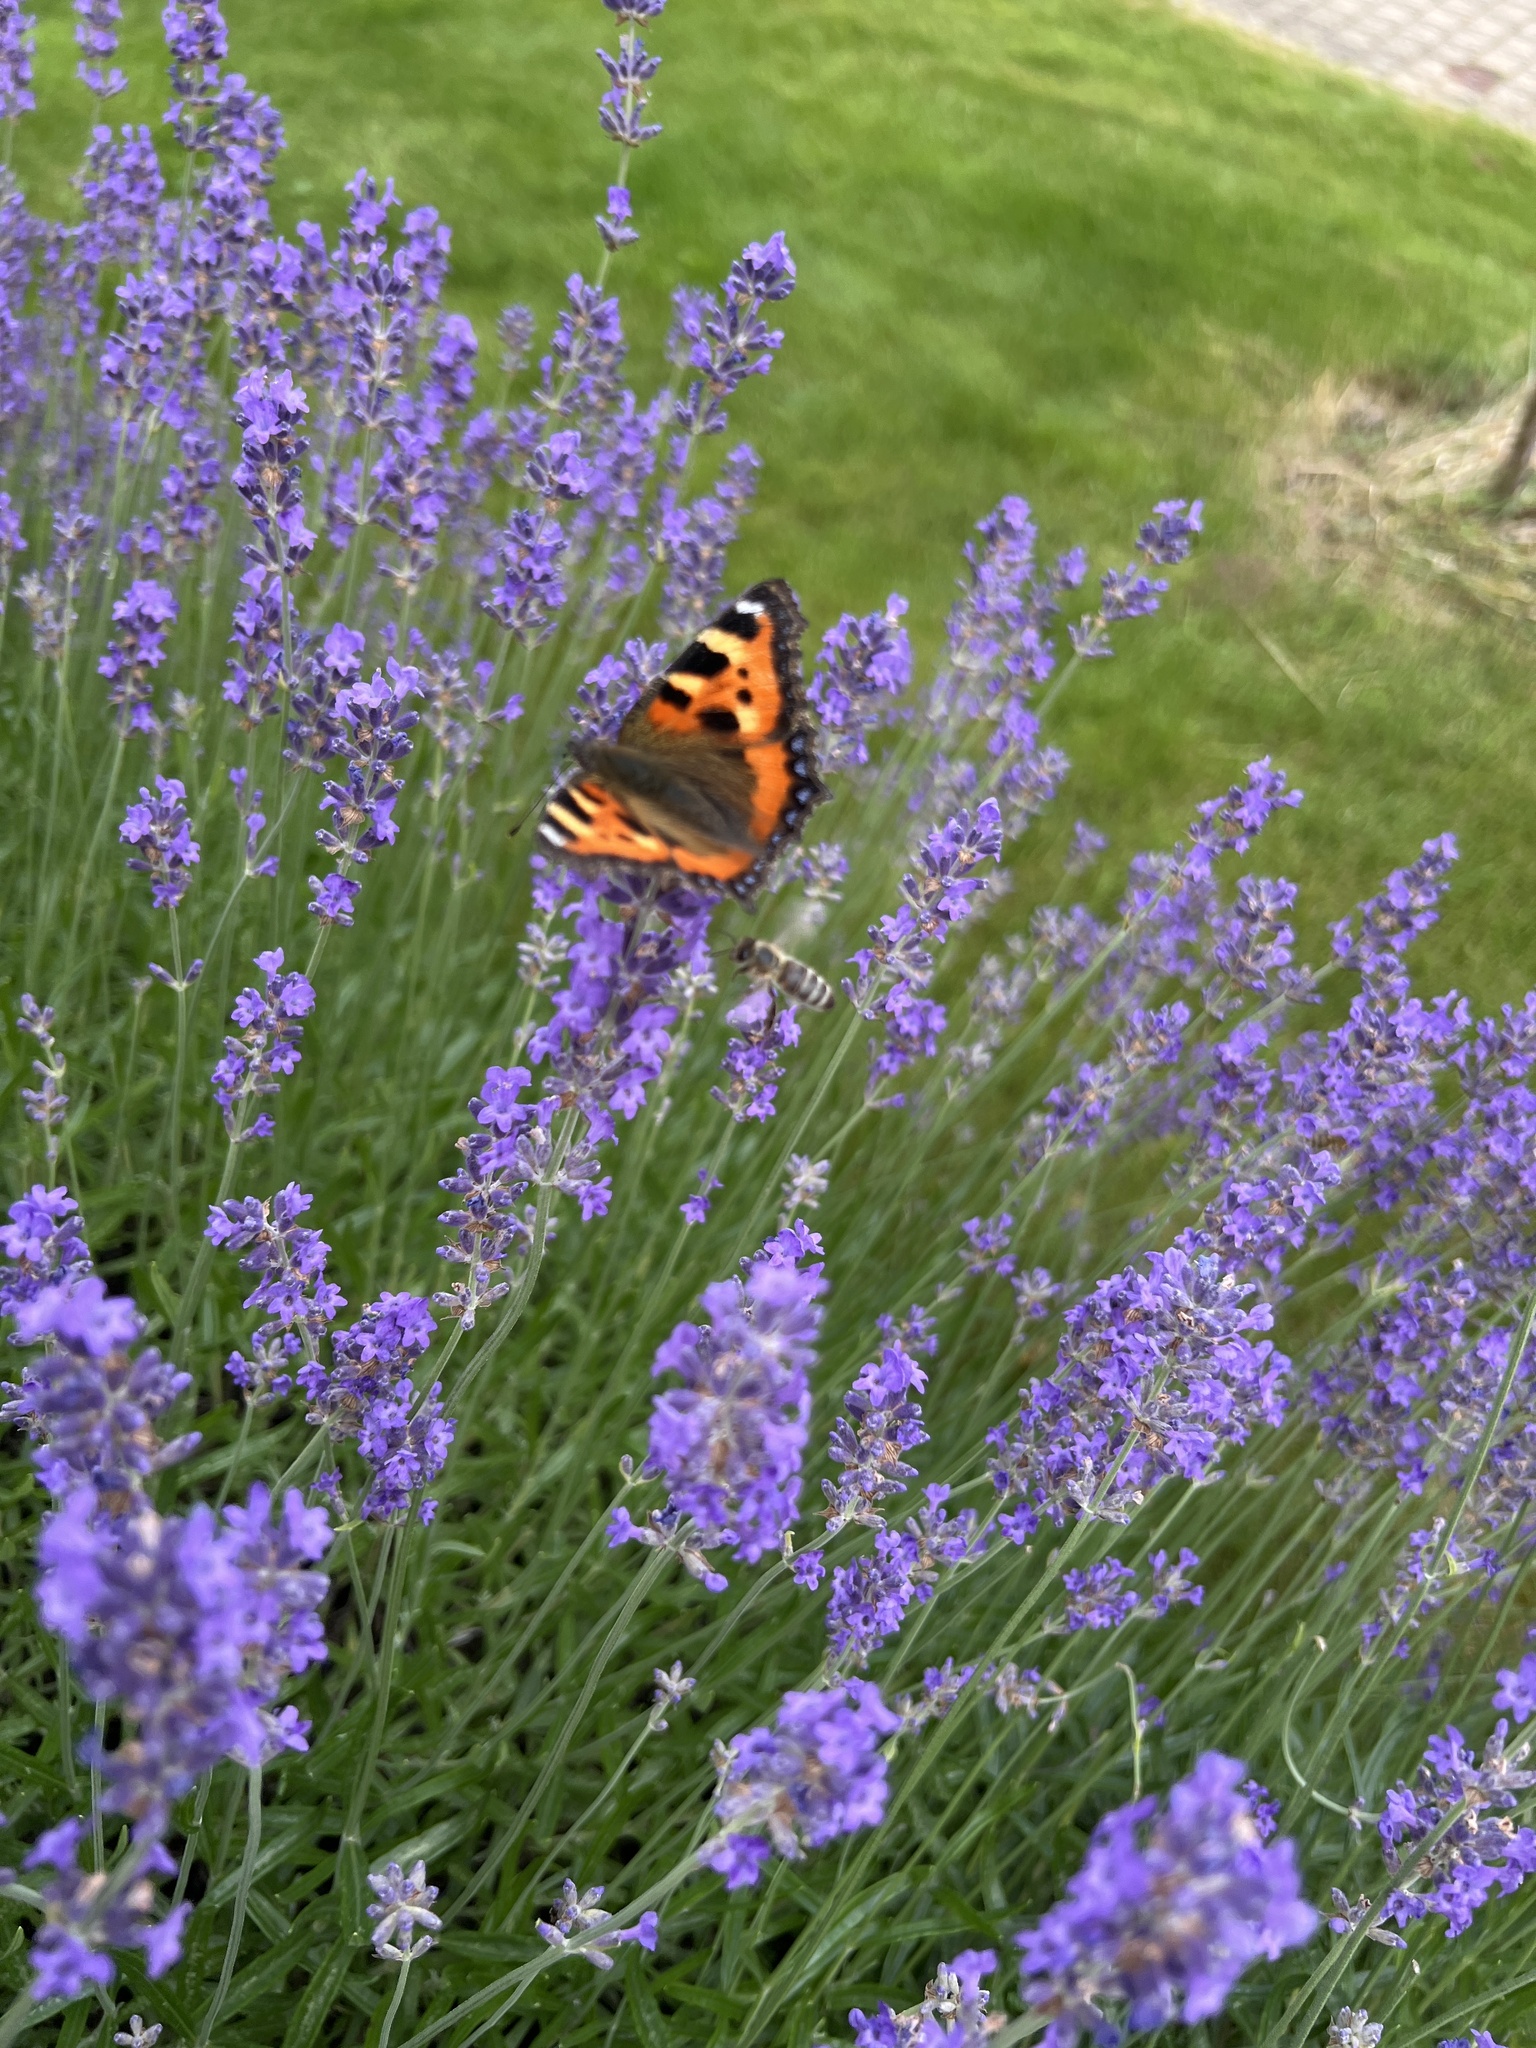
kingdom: Animalia
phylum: Arthropoda
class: Insecta
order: Lepidoptera
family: Nymphalidae
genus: Aglais
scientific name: Aglais urticae
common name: Small tortoiseshell
